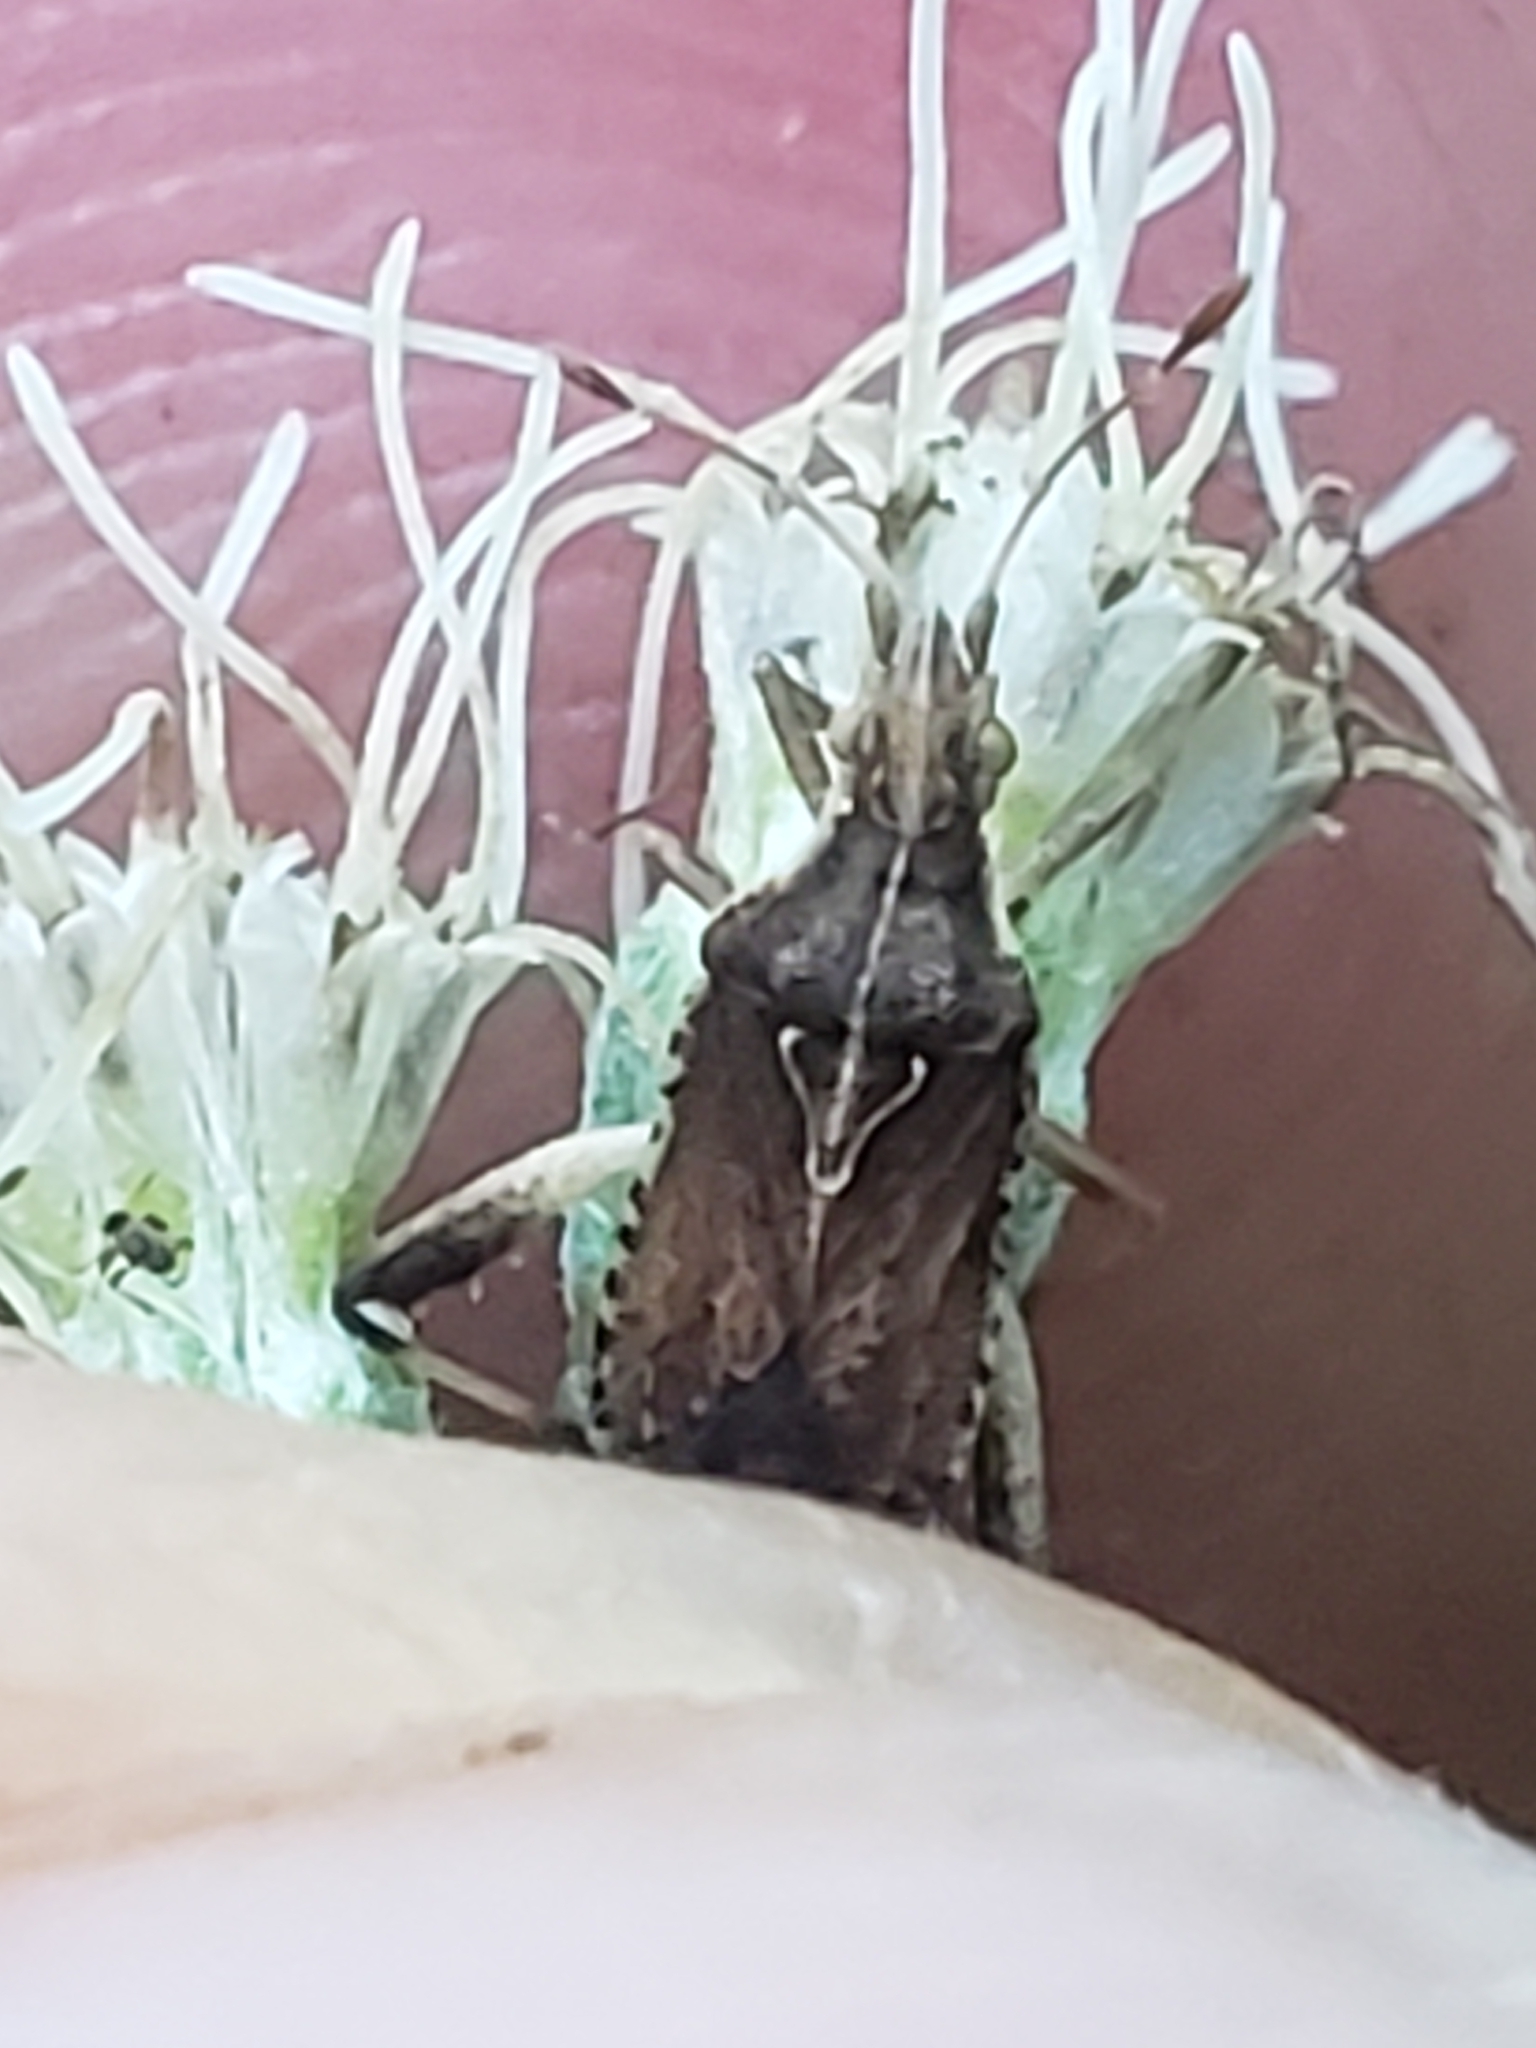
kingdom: Animalia
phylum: Arthropoda
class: Insecta
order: Hemiptera
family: Rhopalidae
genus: Harmostes
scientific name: Harmostes fraterculus
